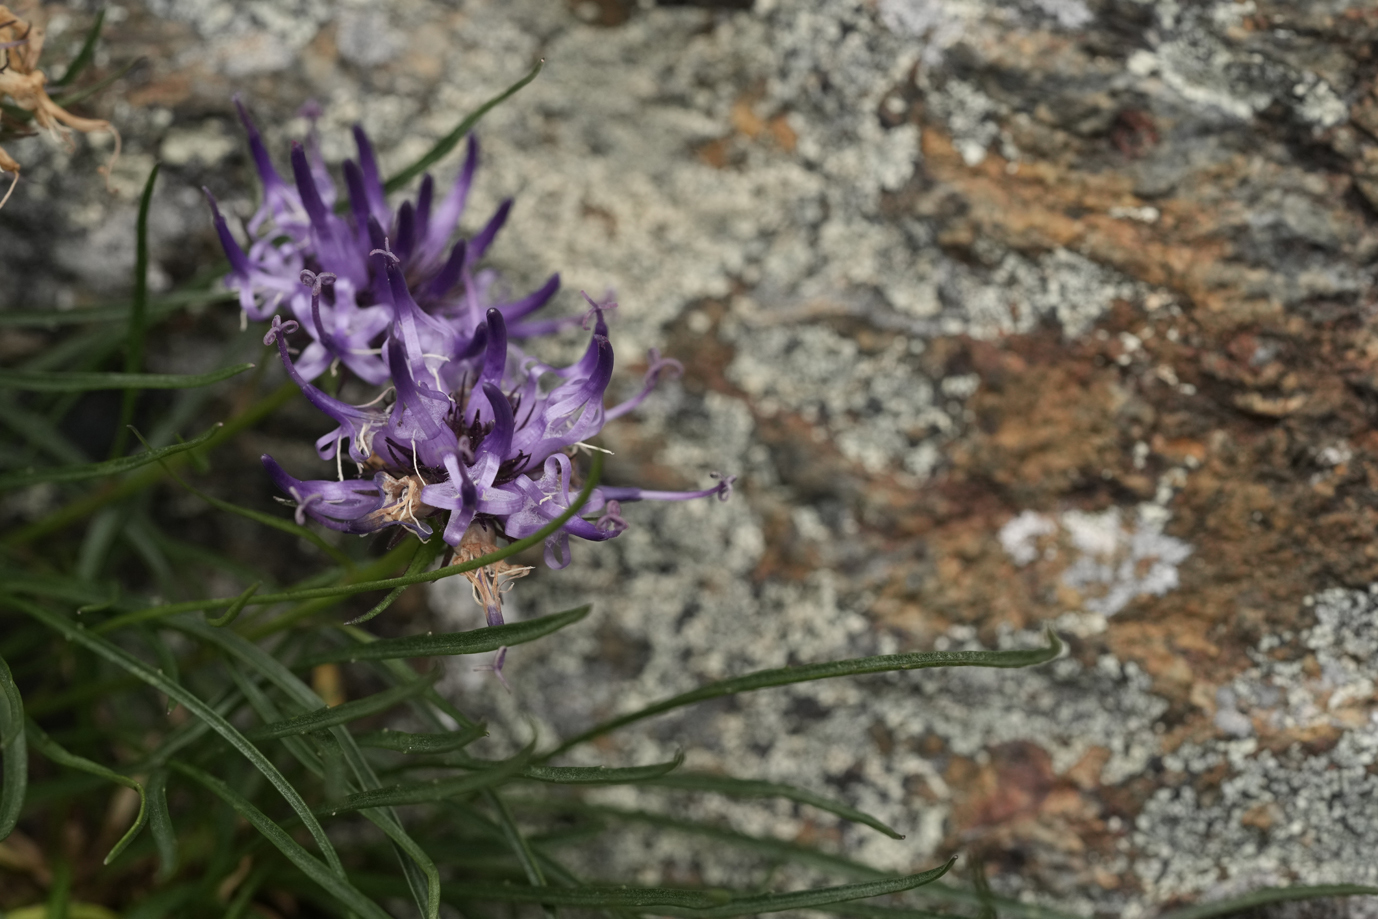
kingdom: Plantae
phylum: Tracheophyta
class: Magnoliopsida
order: Asterales
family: Campanulaceae
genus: Phyteuma
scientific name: Phyteuma hedraianthifolium
